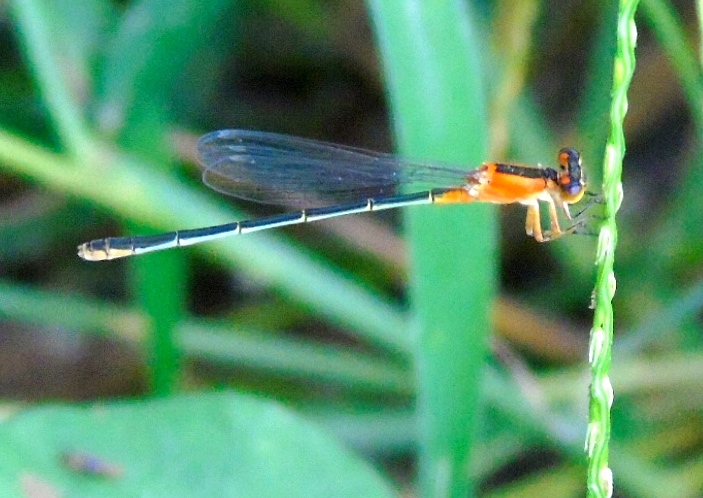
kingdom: Animalia
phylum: Arthropoda
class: Insecta
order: Odonata
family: Coenagrionidae
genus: Ischnura
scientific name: Ischnura ramburii
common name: Rambur's forktail
